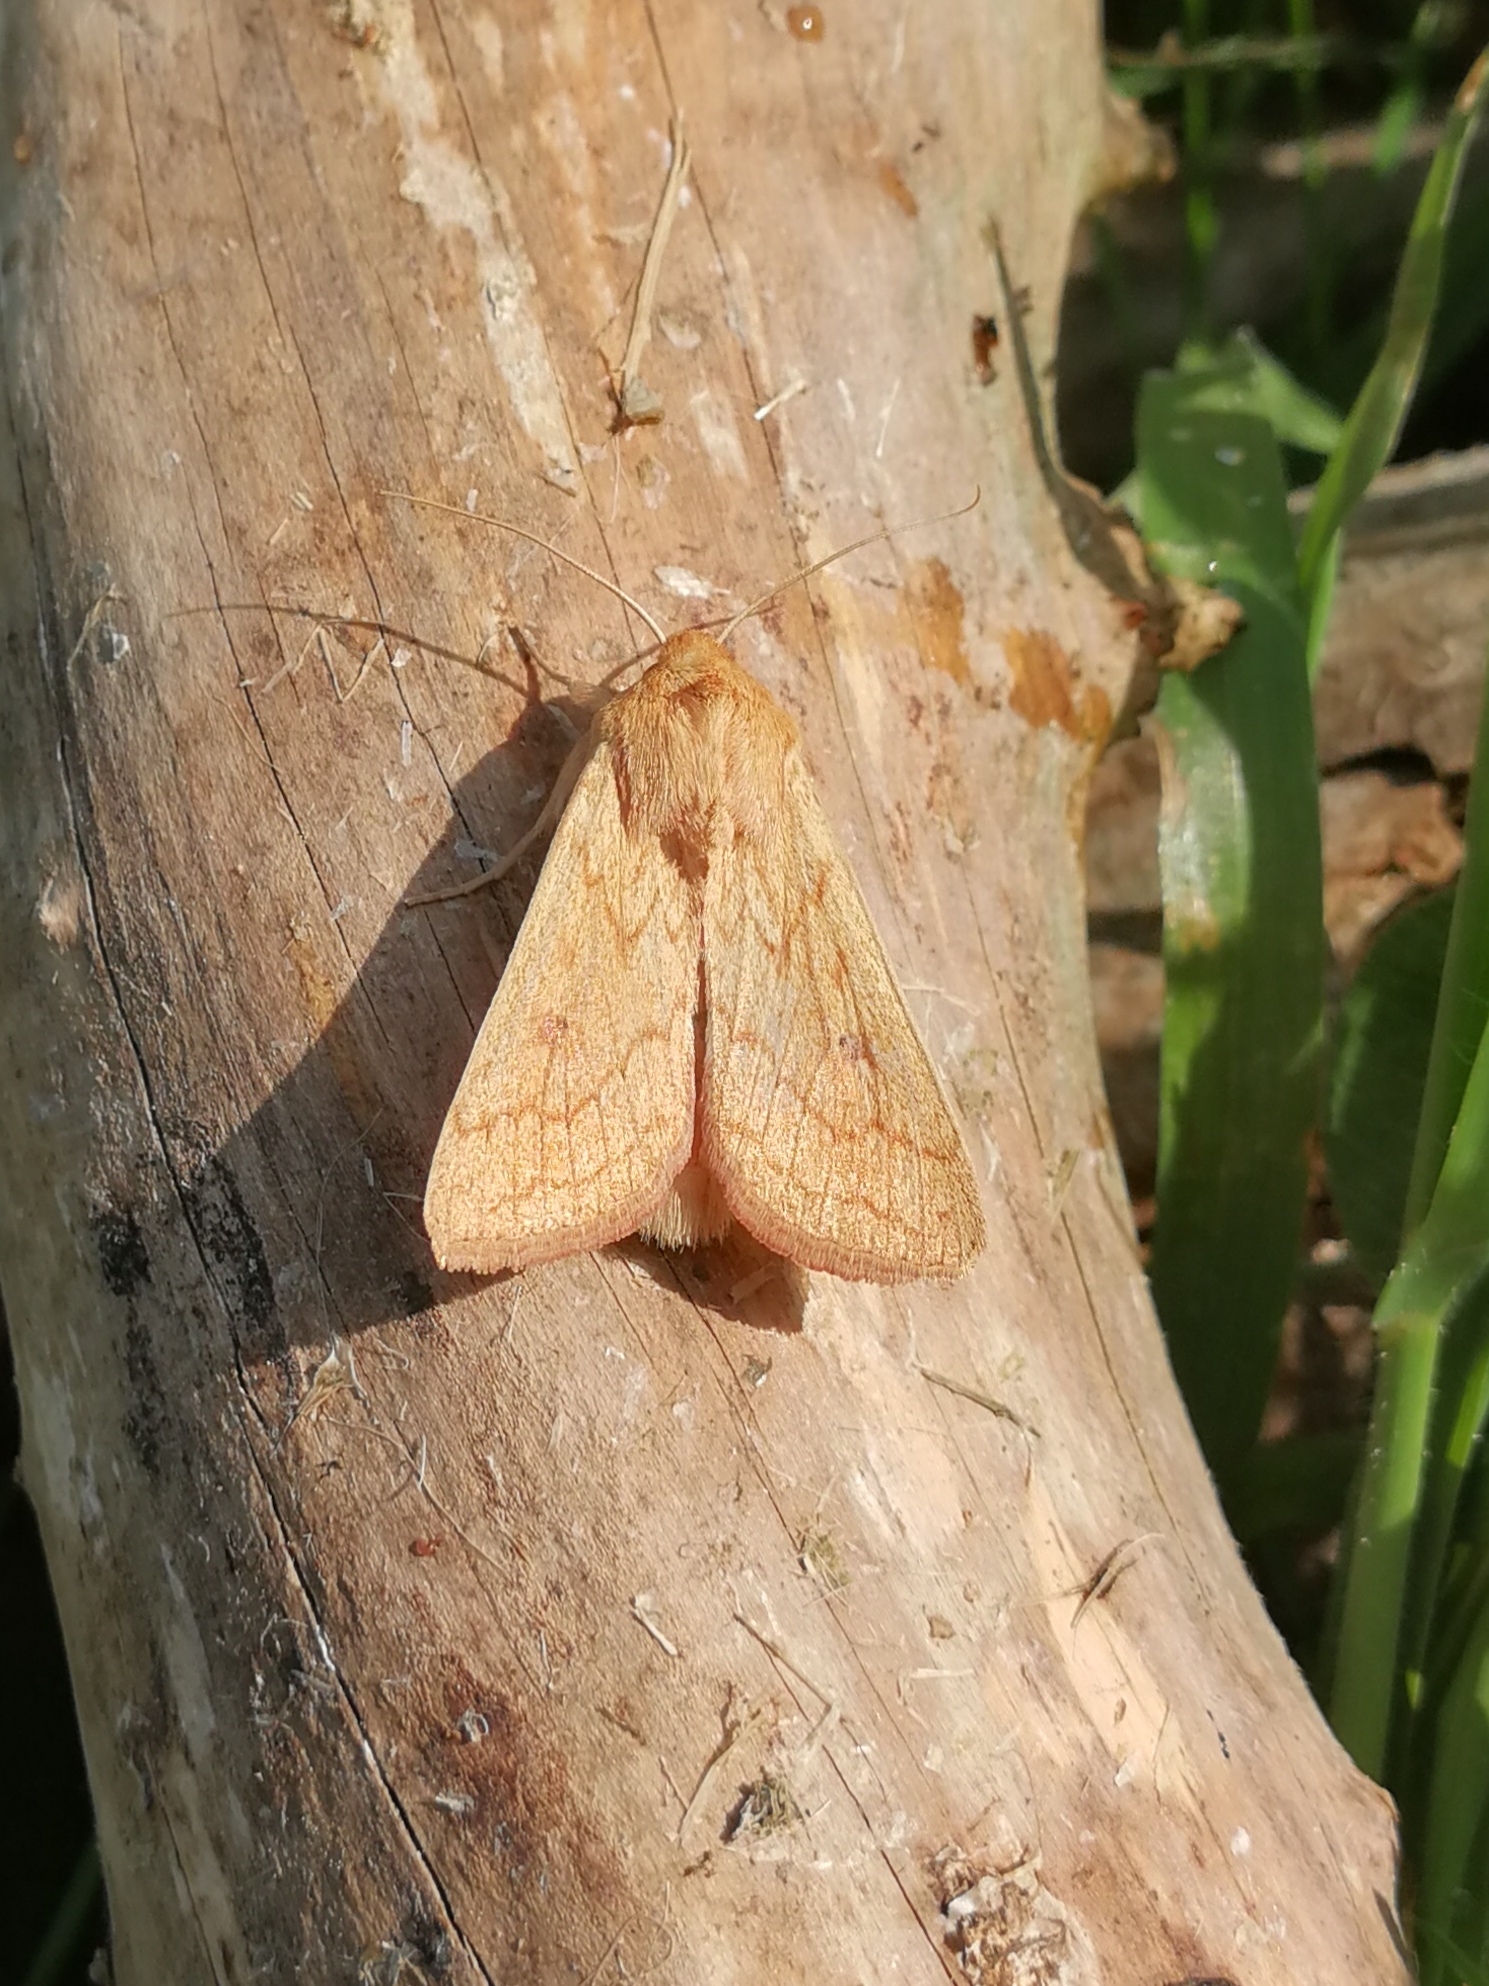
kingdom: Animalia
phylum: Arthropoda
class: Insecta
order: Lepidoptera
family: Noctuidae
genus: Mythimna
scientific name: Mythimna vitellina
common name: Delicate
